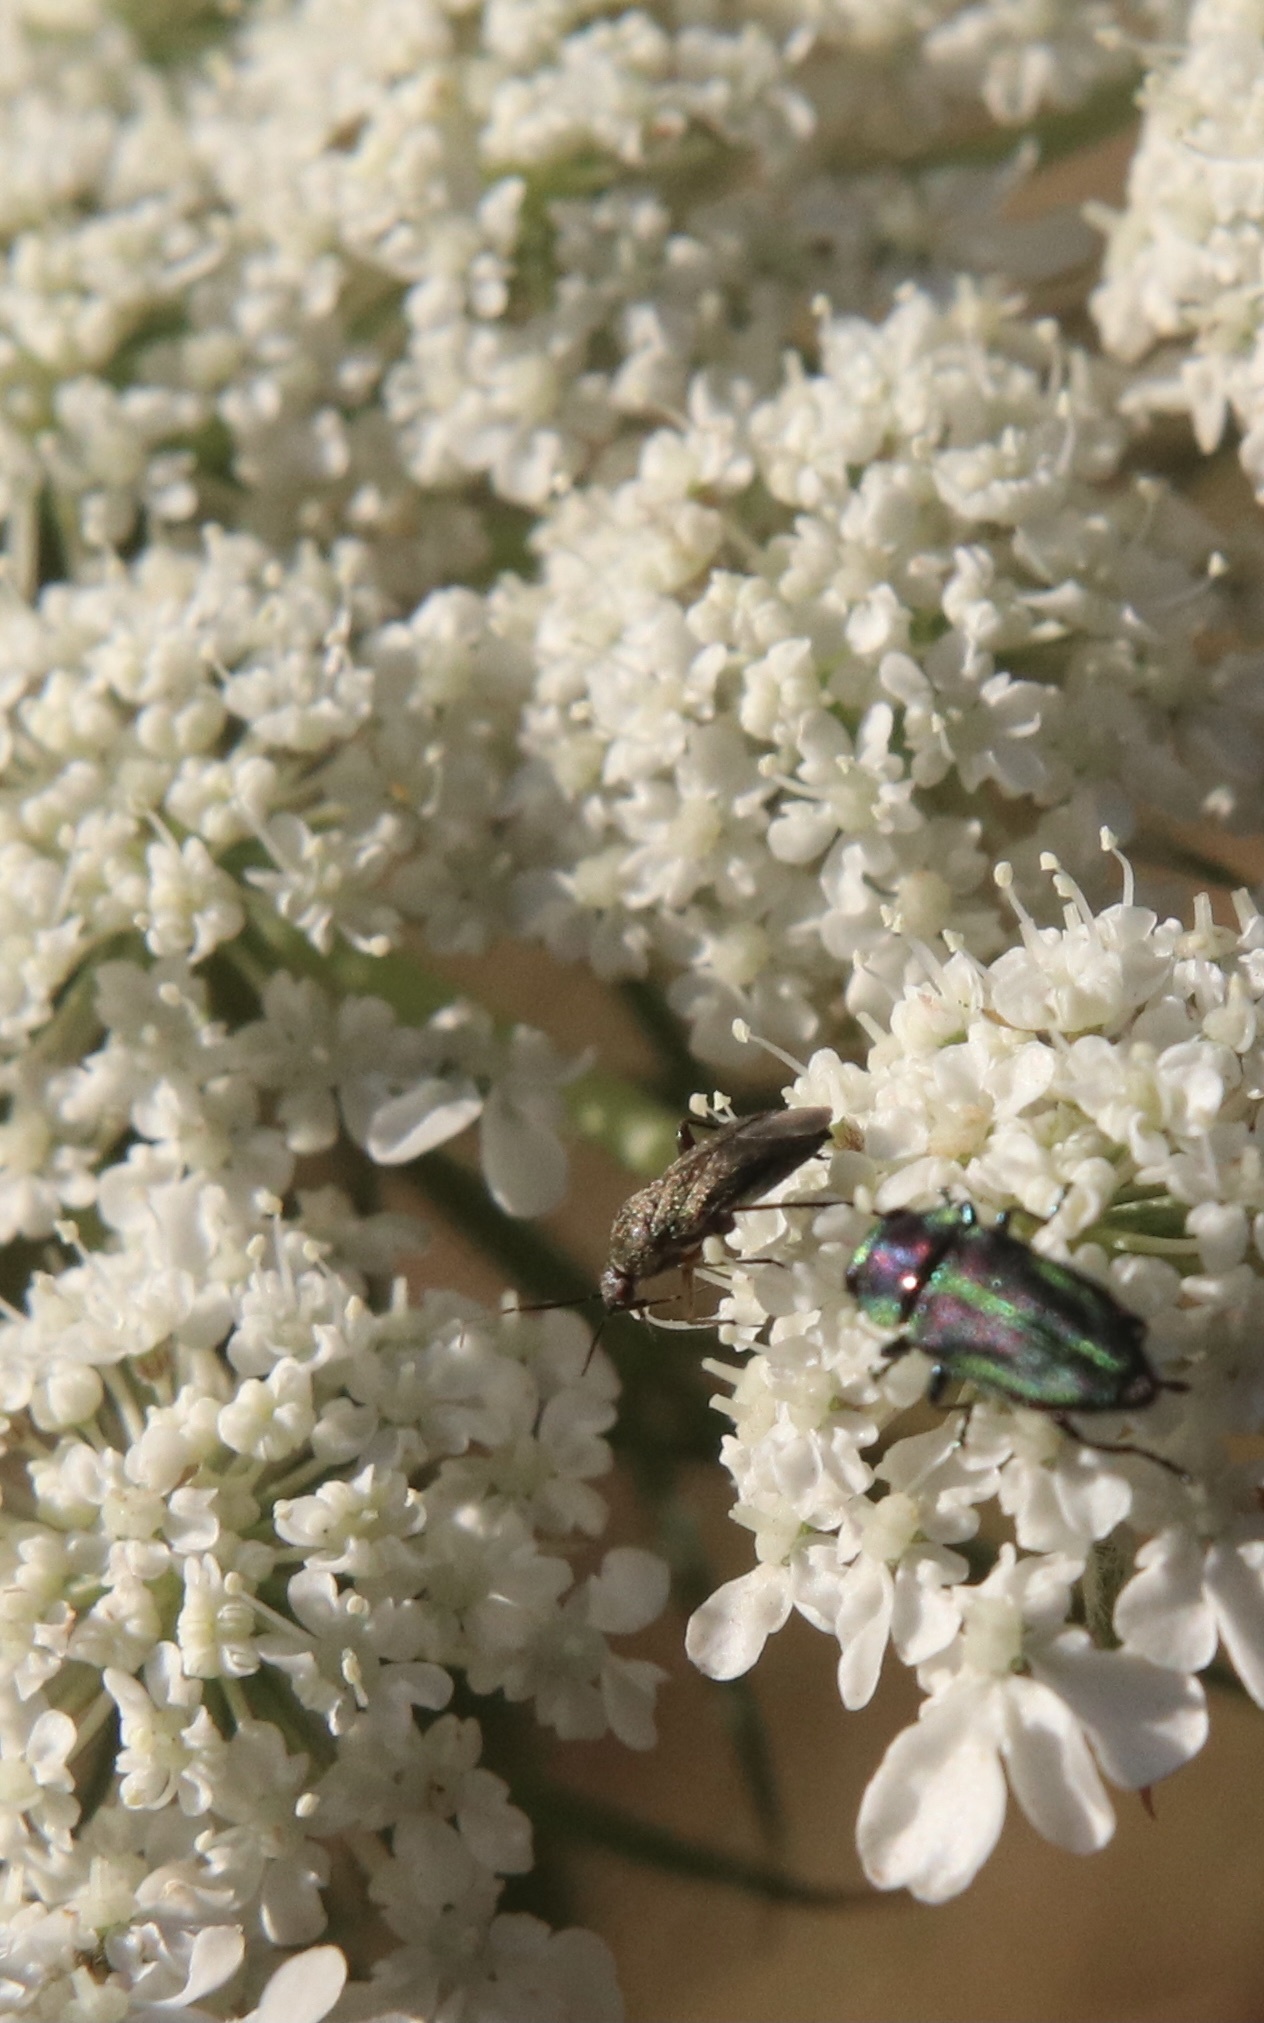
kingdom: Animalia
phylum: Arthropoda
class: Insecta
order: Coleoptera
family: Buprestidae
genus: Bilyaxia
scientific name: Bilyaxia concinna
